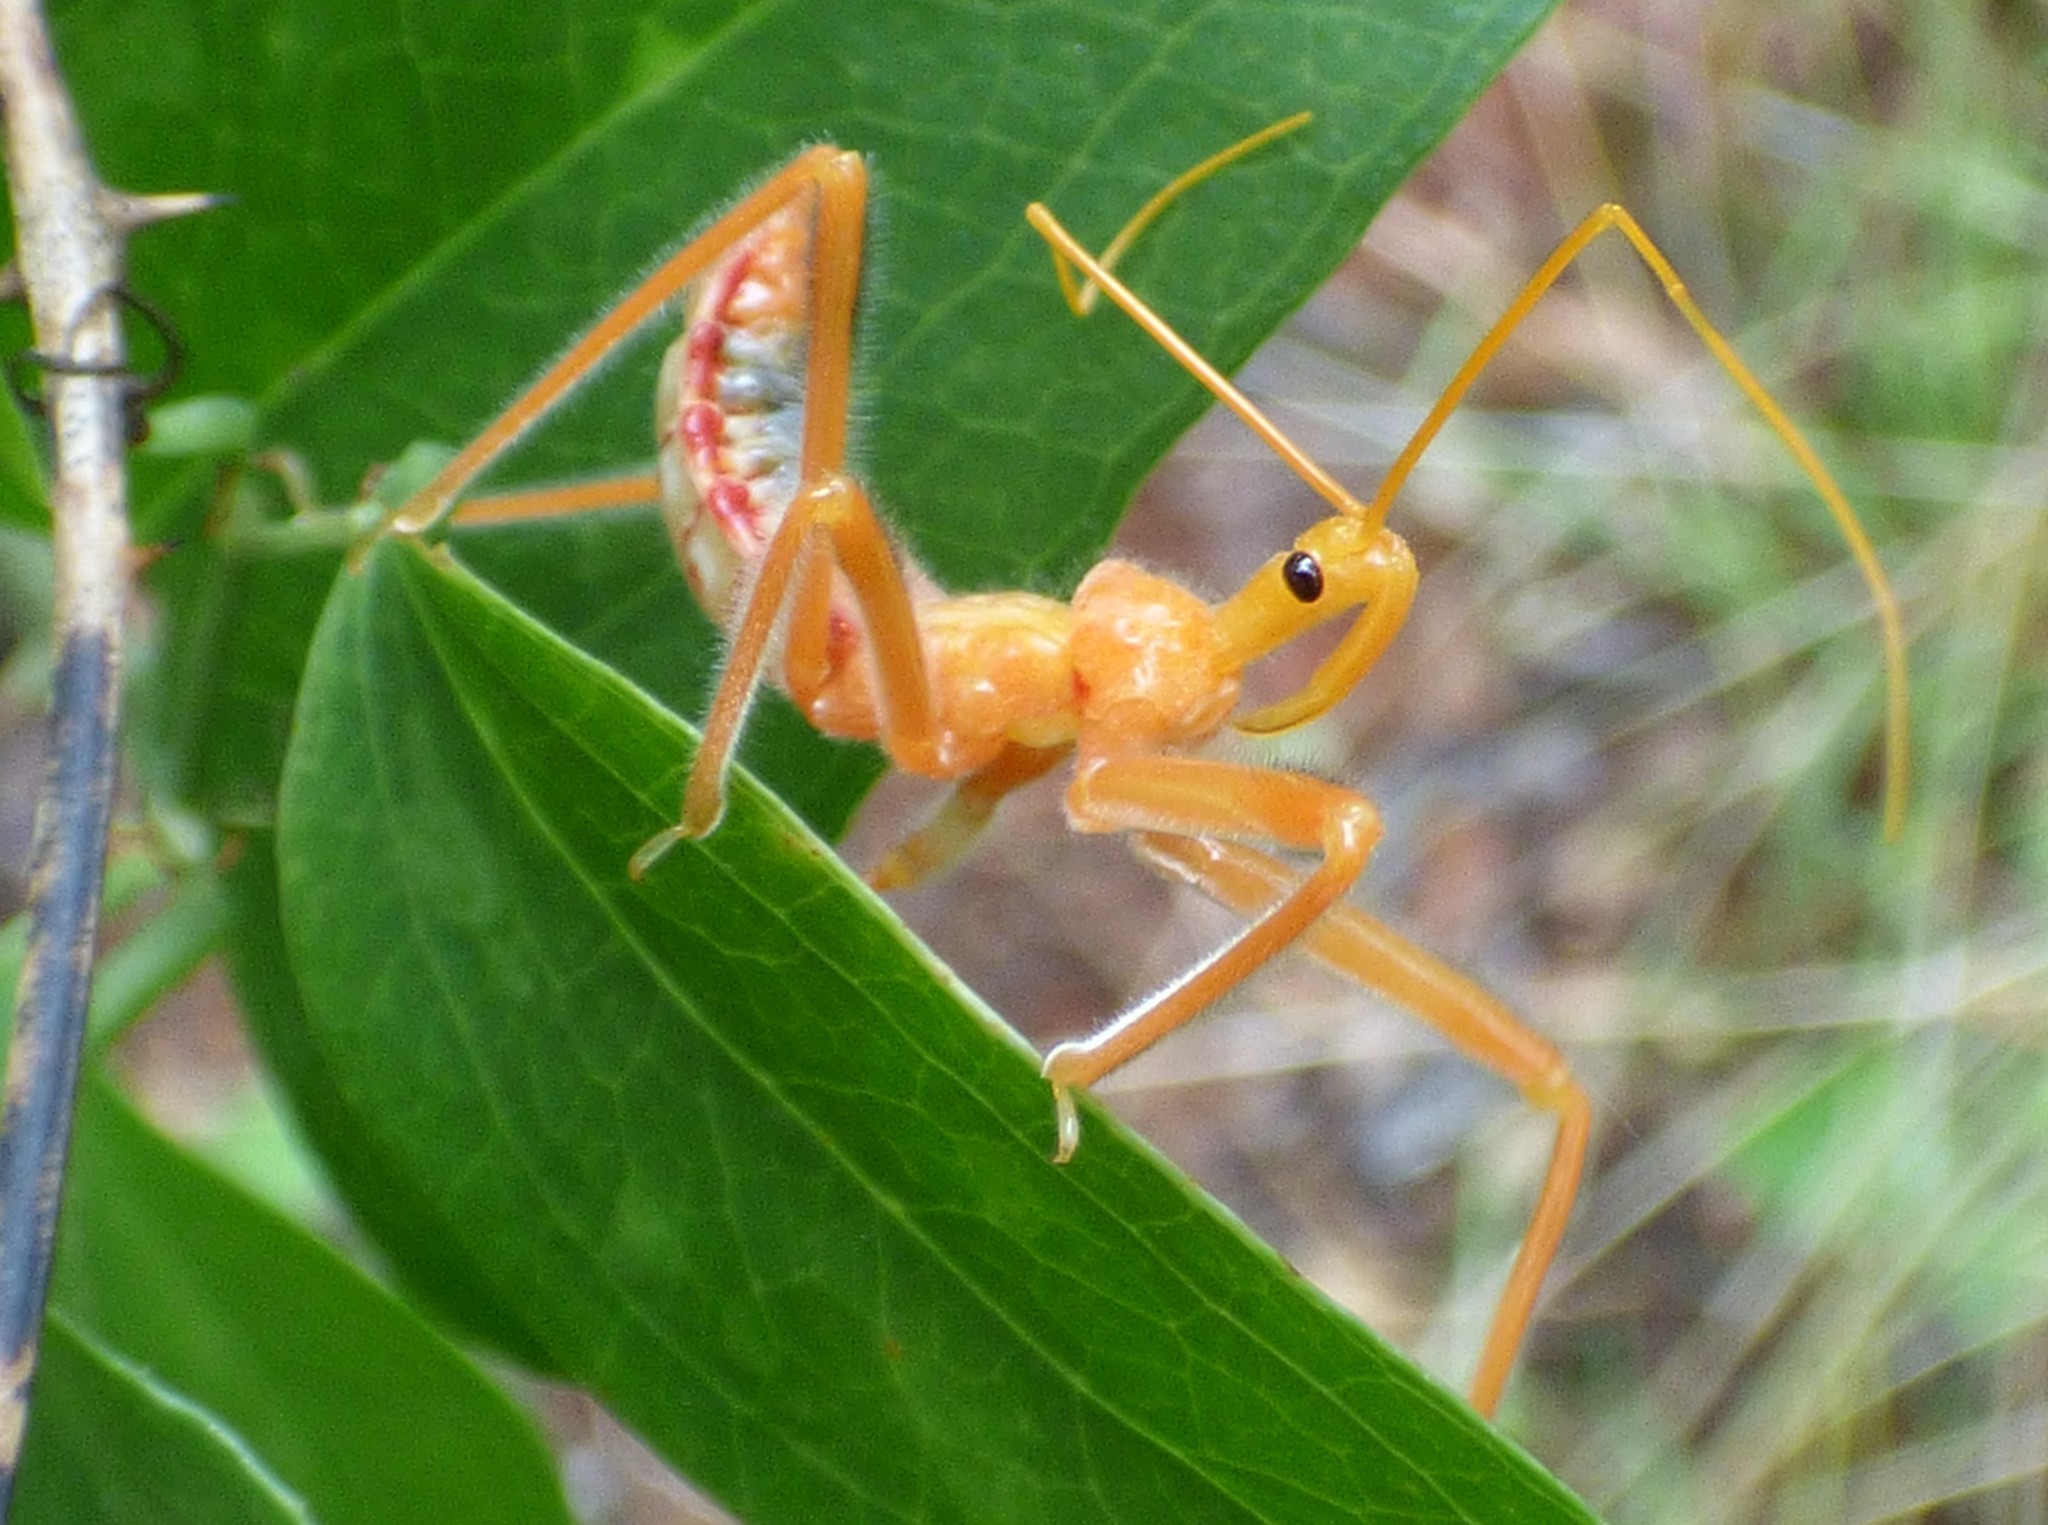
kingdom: Animalia
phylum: Arthropoda
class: Insecta
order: Hemiptera
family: Reduviidae
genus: Arilus
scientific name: Arilus cristatus
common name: North american wheel bug
